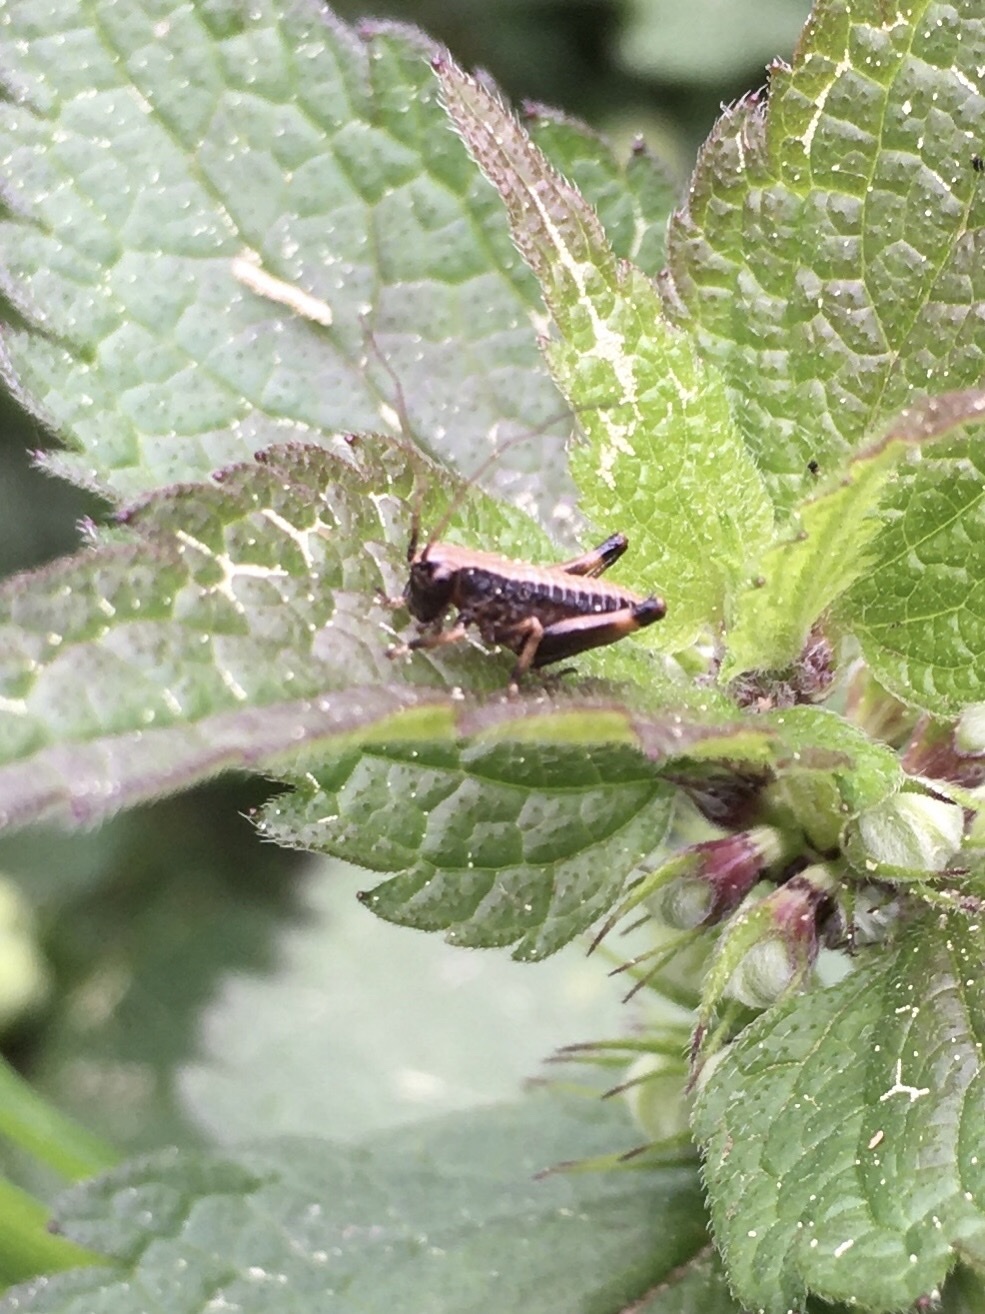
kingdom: Animalia
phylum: Arthropoda
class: Insecta
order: Orthoptera
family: Tettigoniidae
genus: Pholidoptera
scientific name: Pholidoptera griseoaptera
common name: Dark bush-cricket
